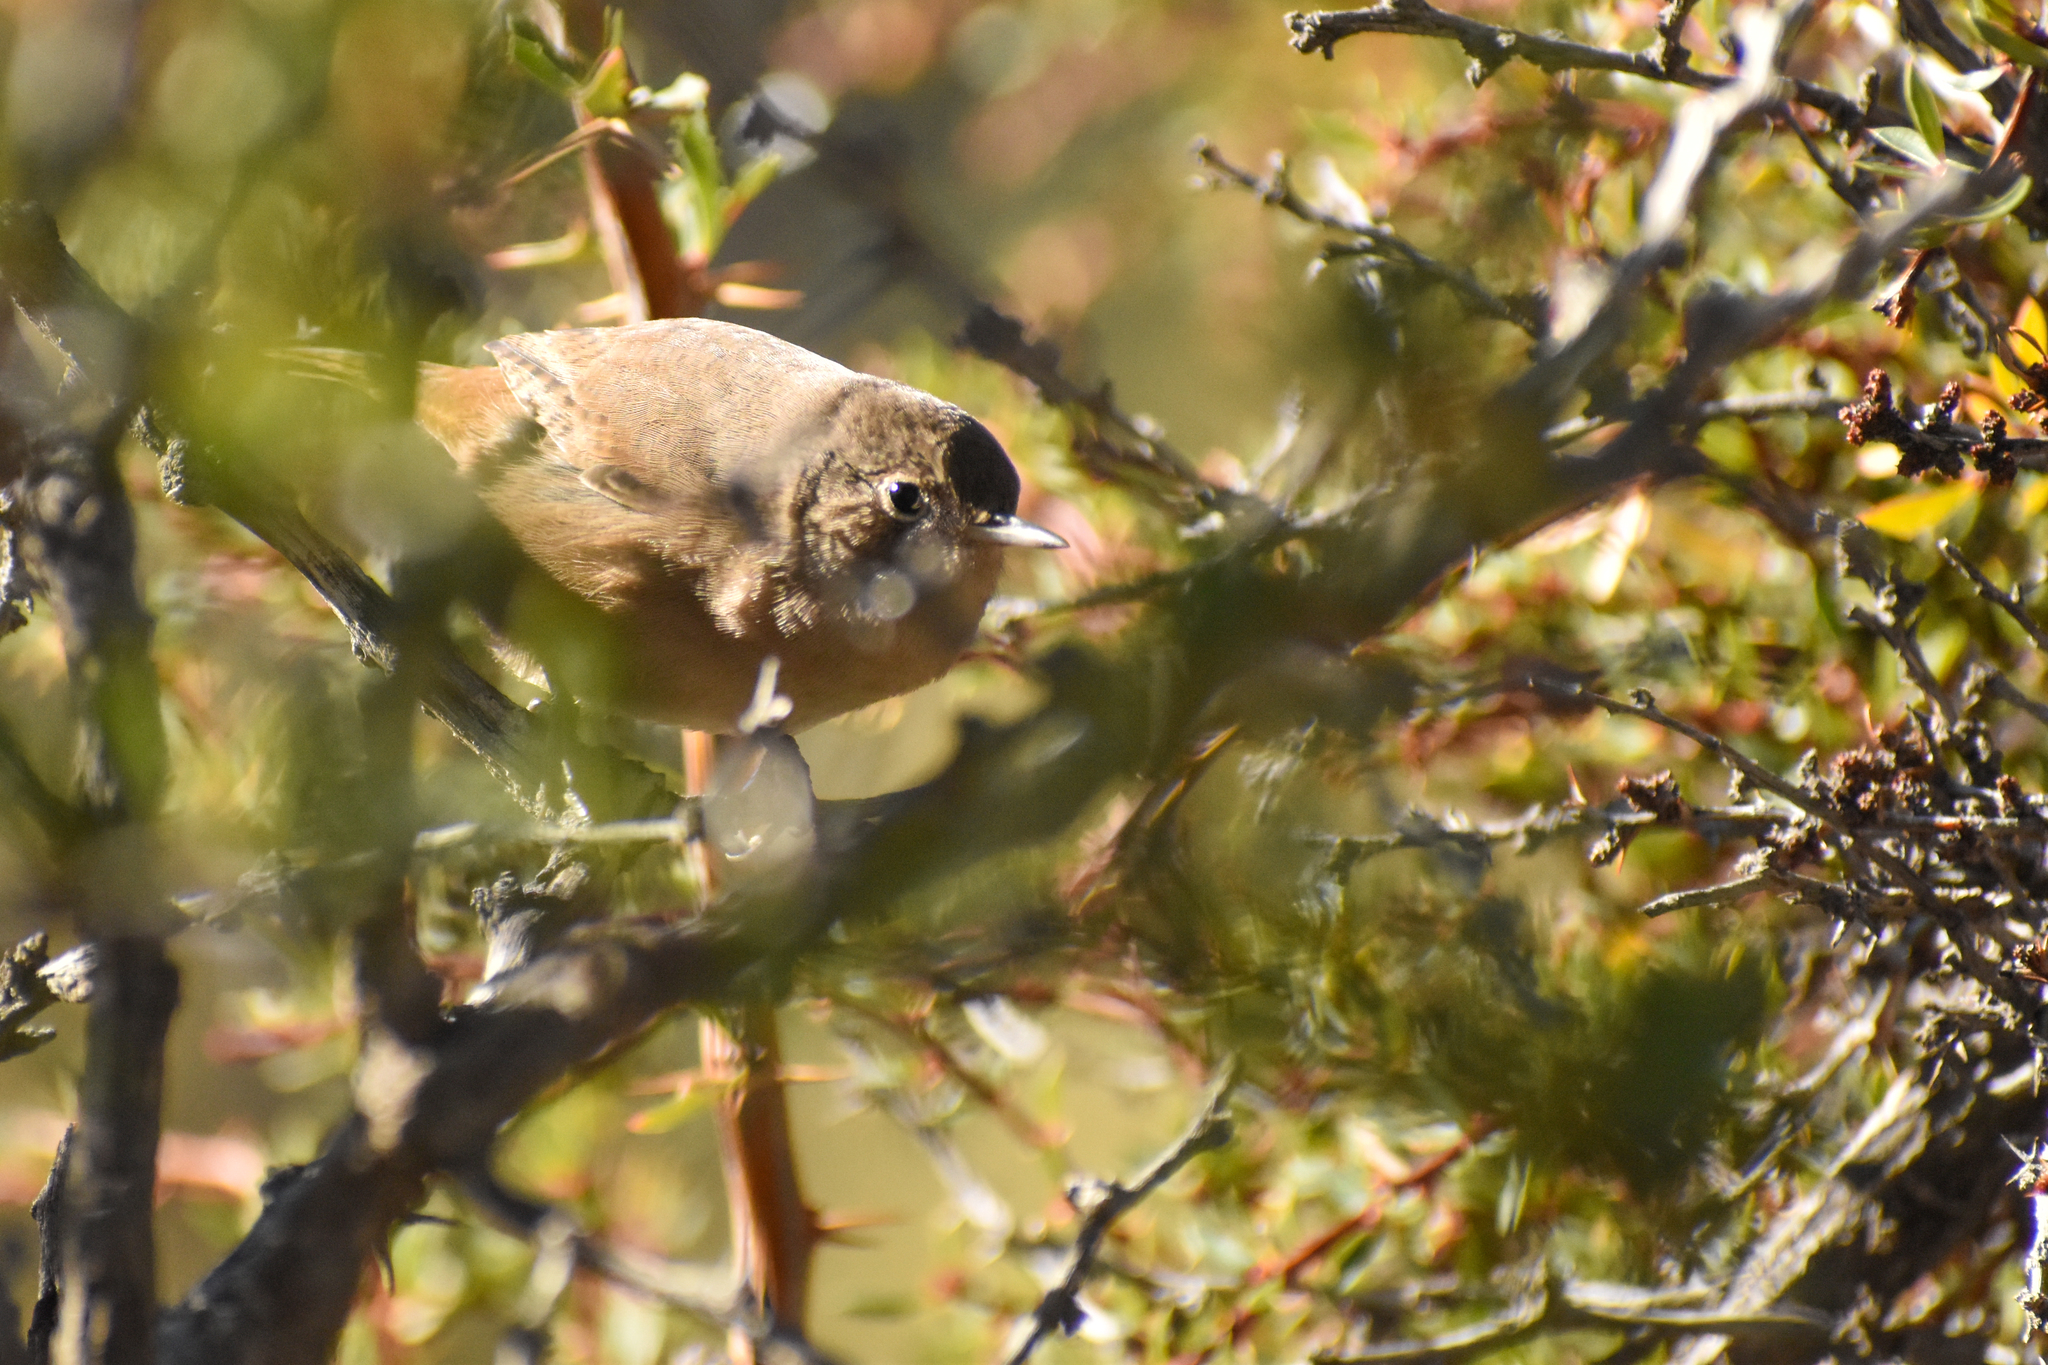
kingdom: Animalia
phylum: Chordata
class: Aves
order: Passeriformes
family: Troglodytidae
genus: Troglodytes
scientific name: Troglodytes aedon
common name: House wren
